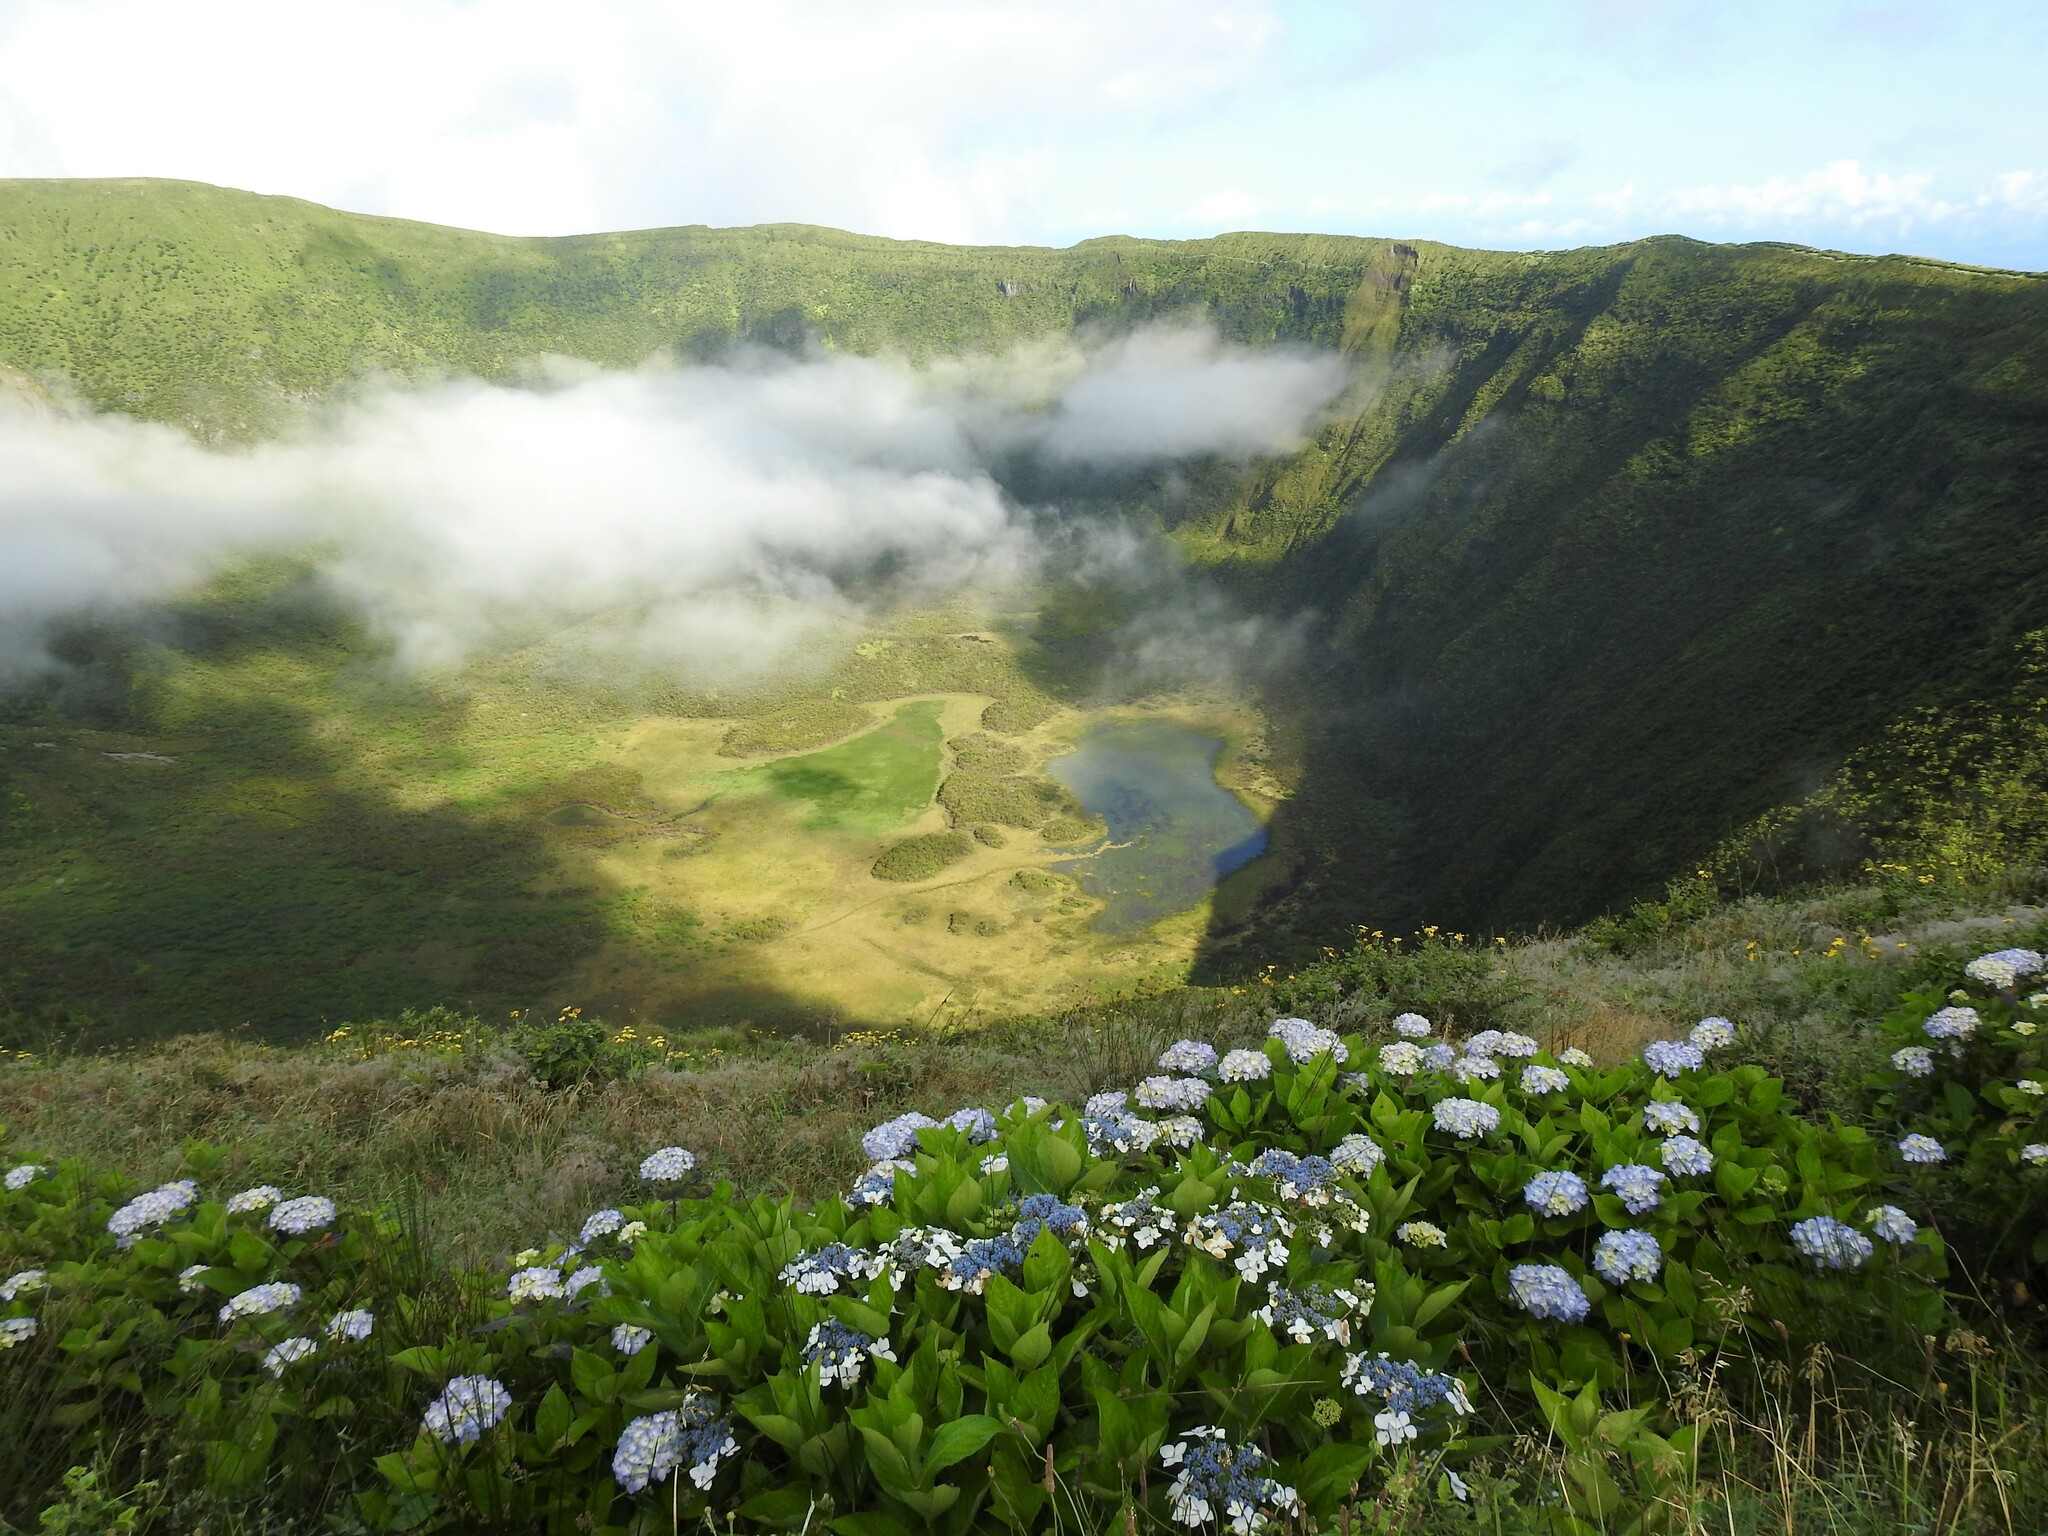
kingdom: Plantae
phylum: Tracheophyta
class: Magnoliopsida
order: Cornales
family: Hydrangeaceae
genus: Hydrangea
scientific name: Hydrangea macrophylla
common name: Hydrangea
